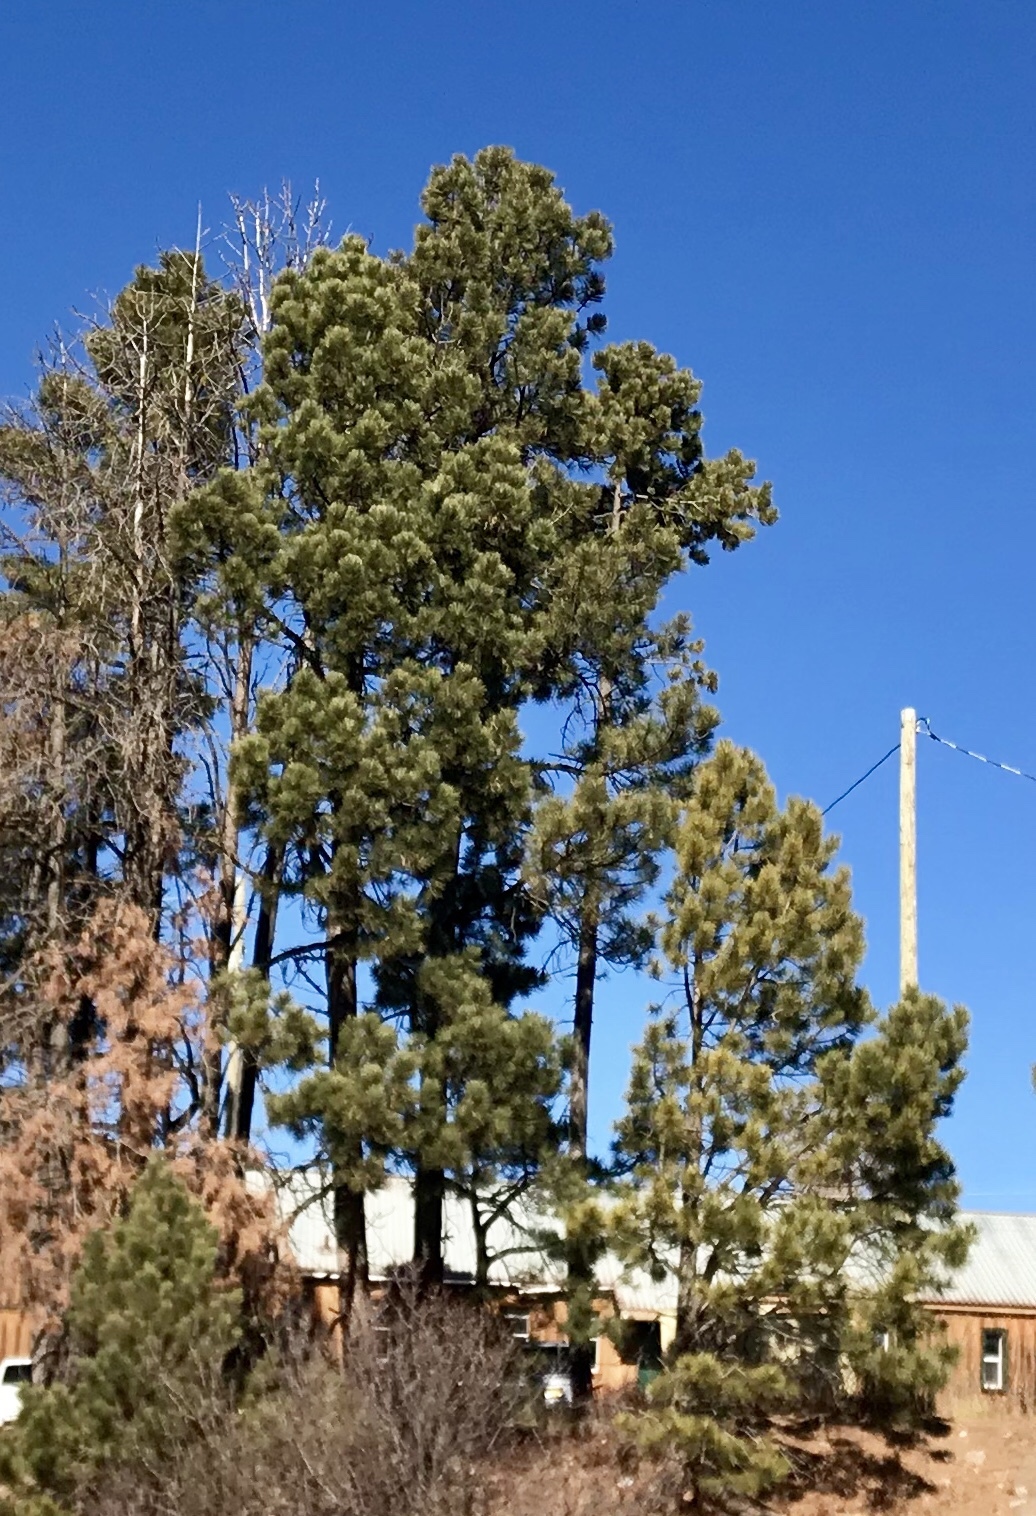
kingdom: Plantae
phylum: Tracheophyta
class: Pinopsida
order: Pinales
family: Pinaceae
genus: Pinus
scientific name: Pinus ponderosa
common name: Western yellow-pine
